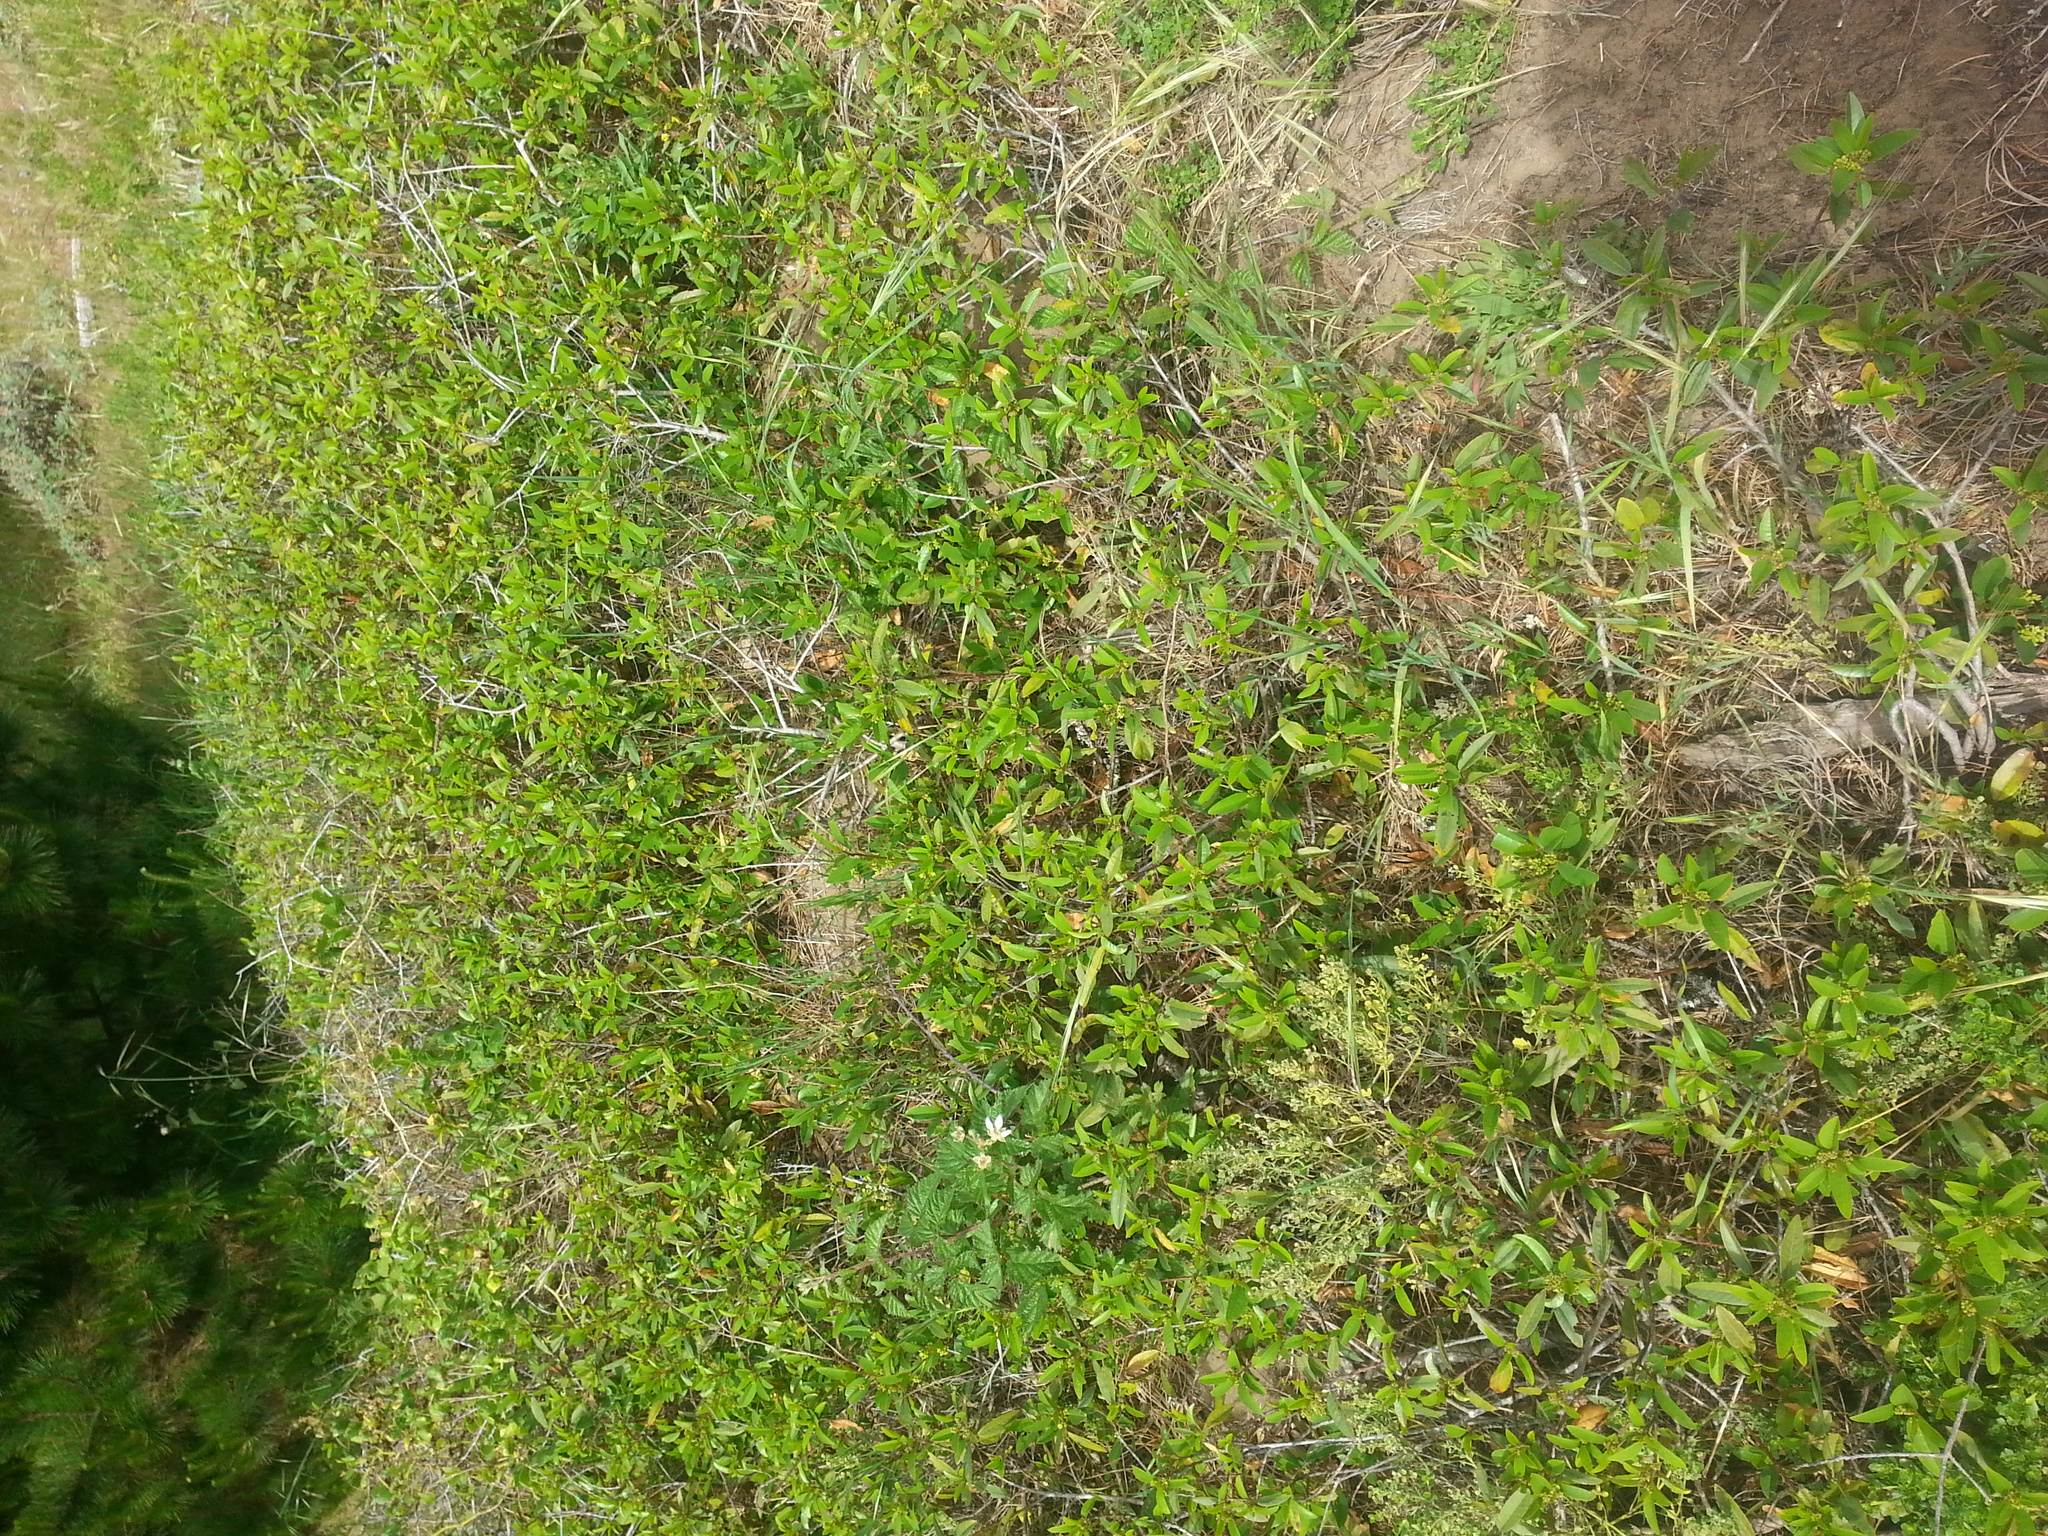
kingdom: Plantae
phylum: Tracheophyta
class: Magnoliopsida
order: Rosales
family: Rhamnaceae
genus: Frangula
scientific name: Frangula californica
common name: California buckthorn
